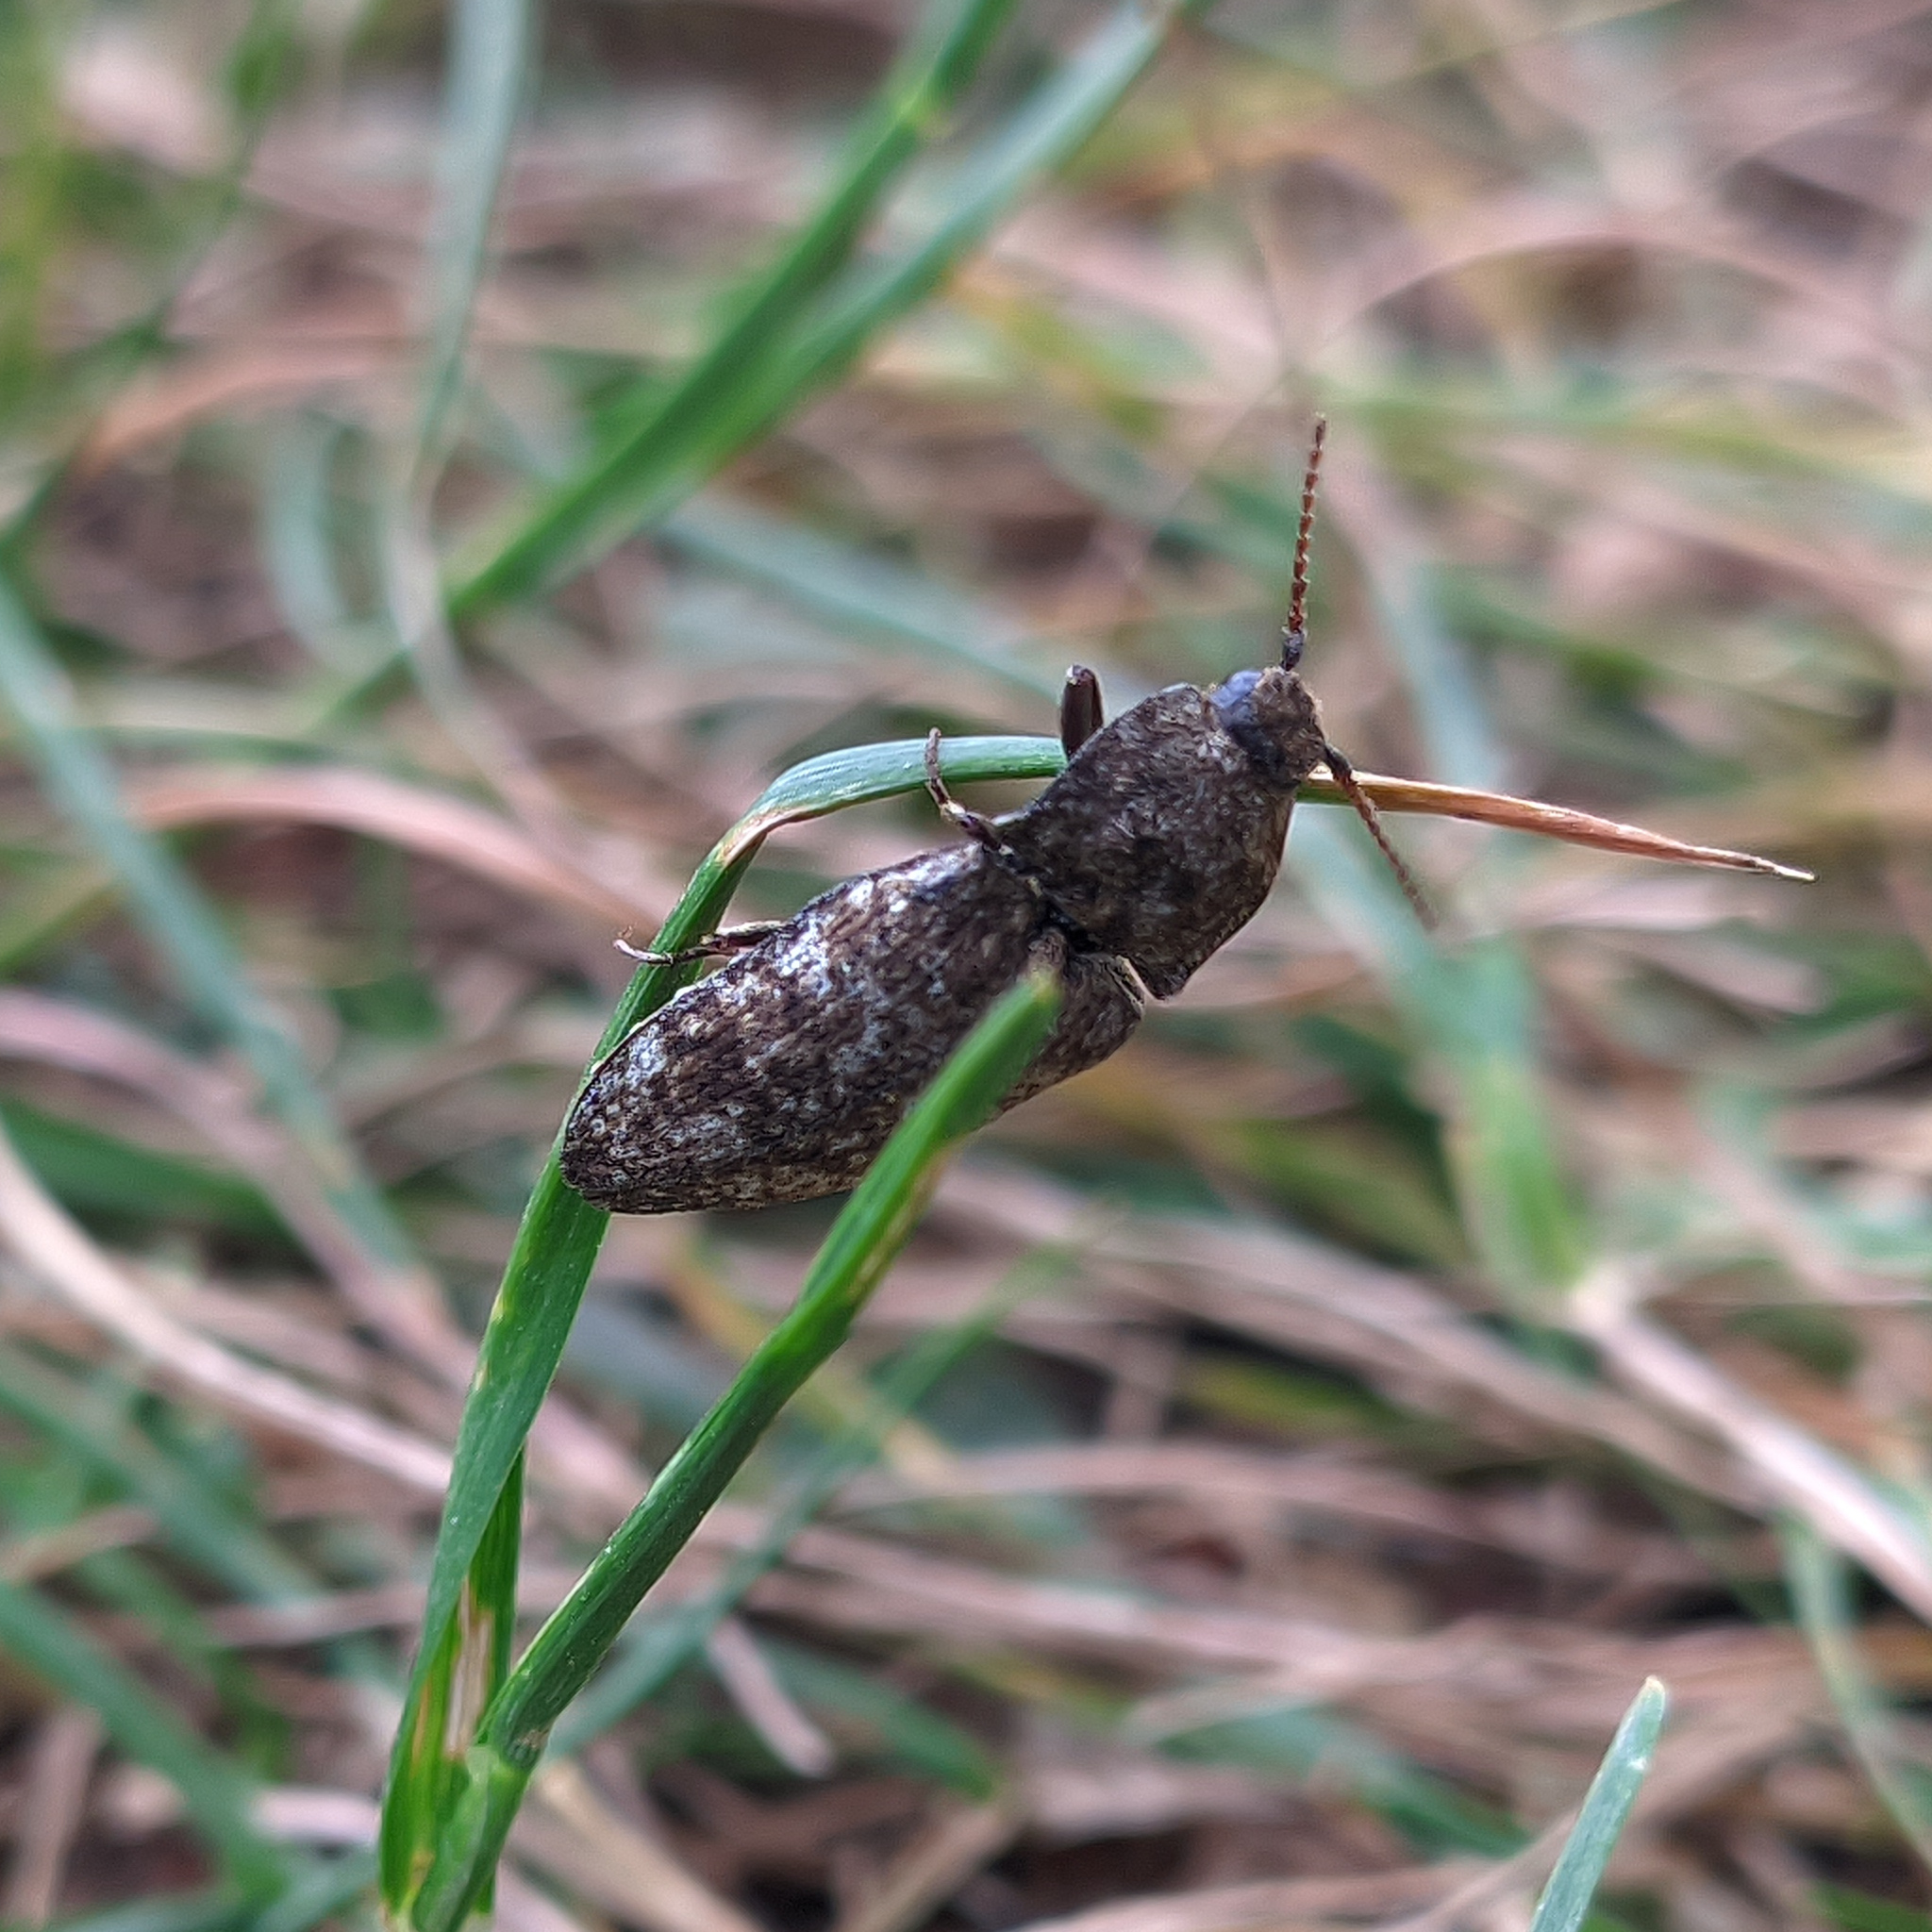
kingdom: Animalia
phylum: Arthropoda
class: Insecta
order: Coleoptera
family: Elateridae
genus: Agrypnus
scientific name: Agrypnus murinus
